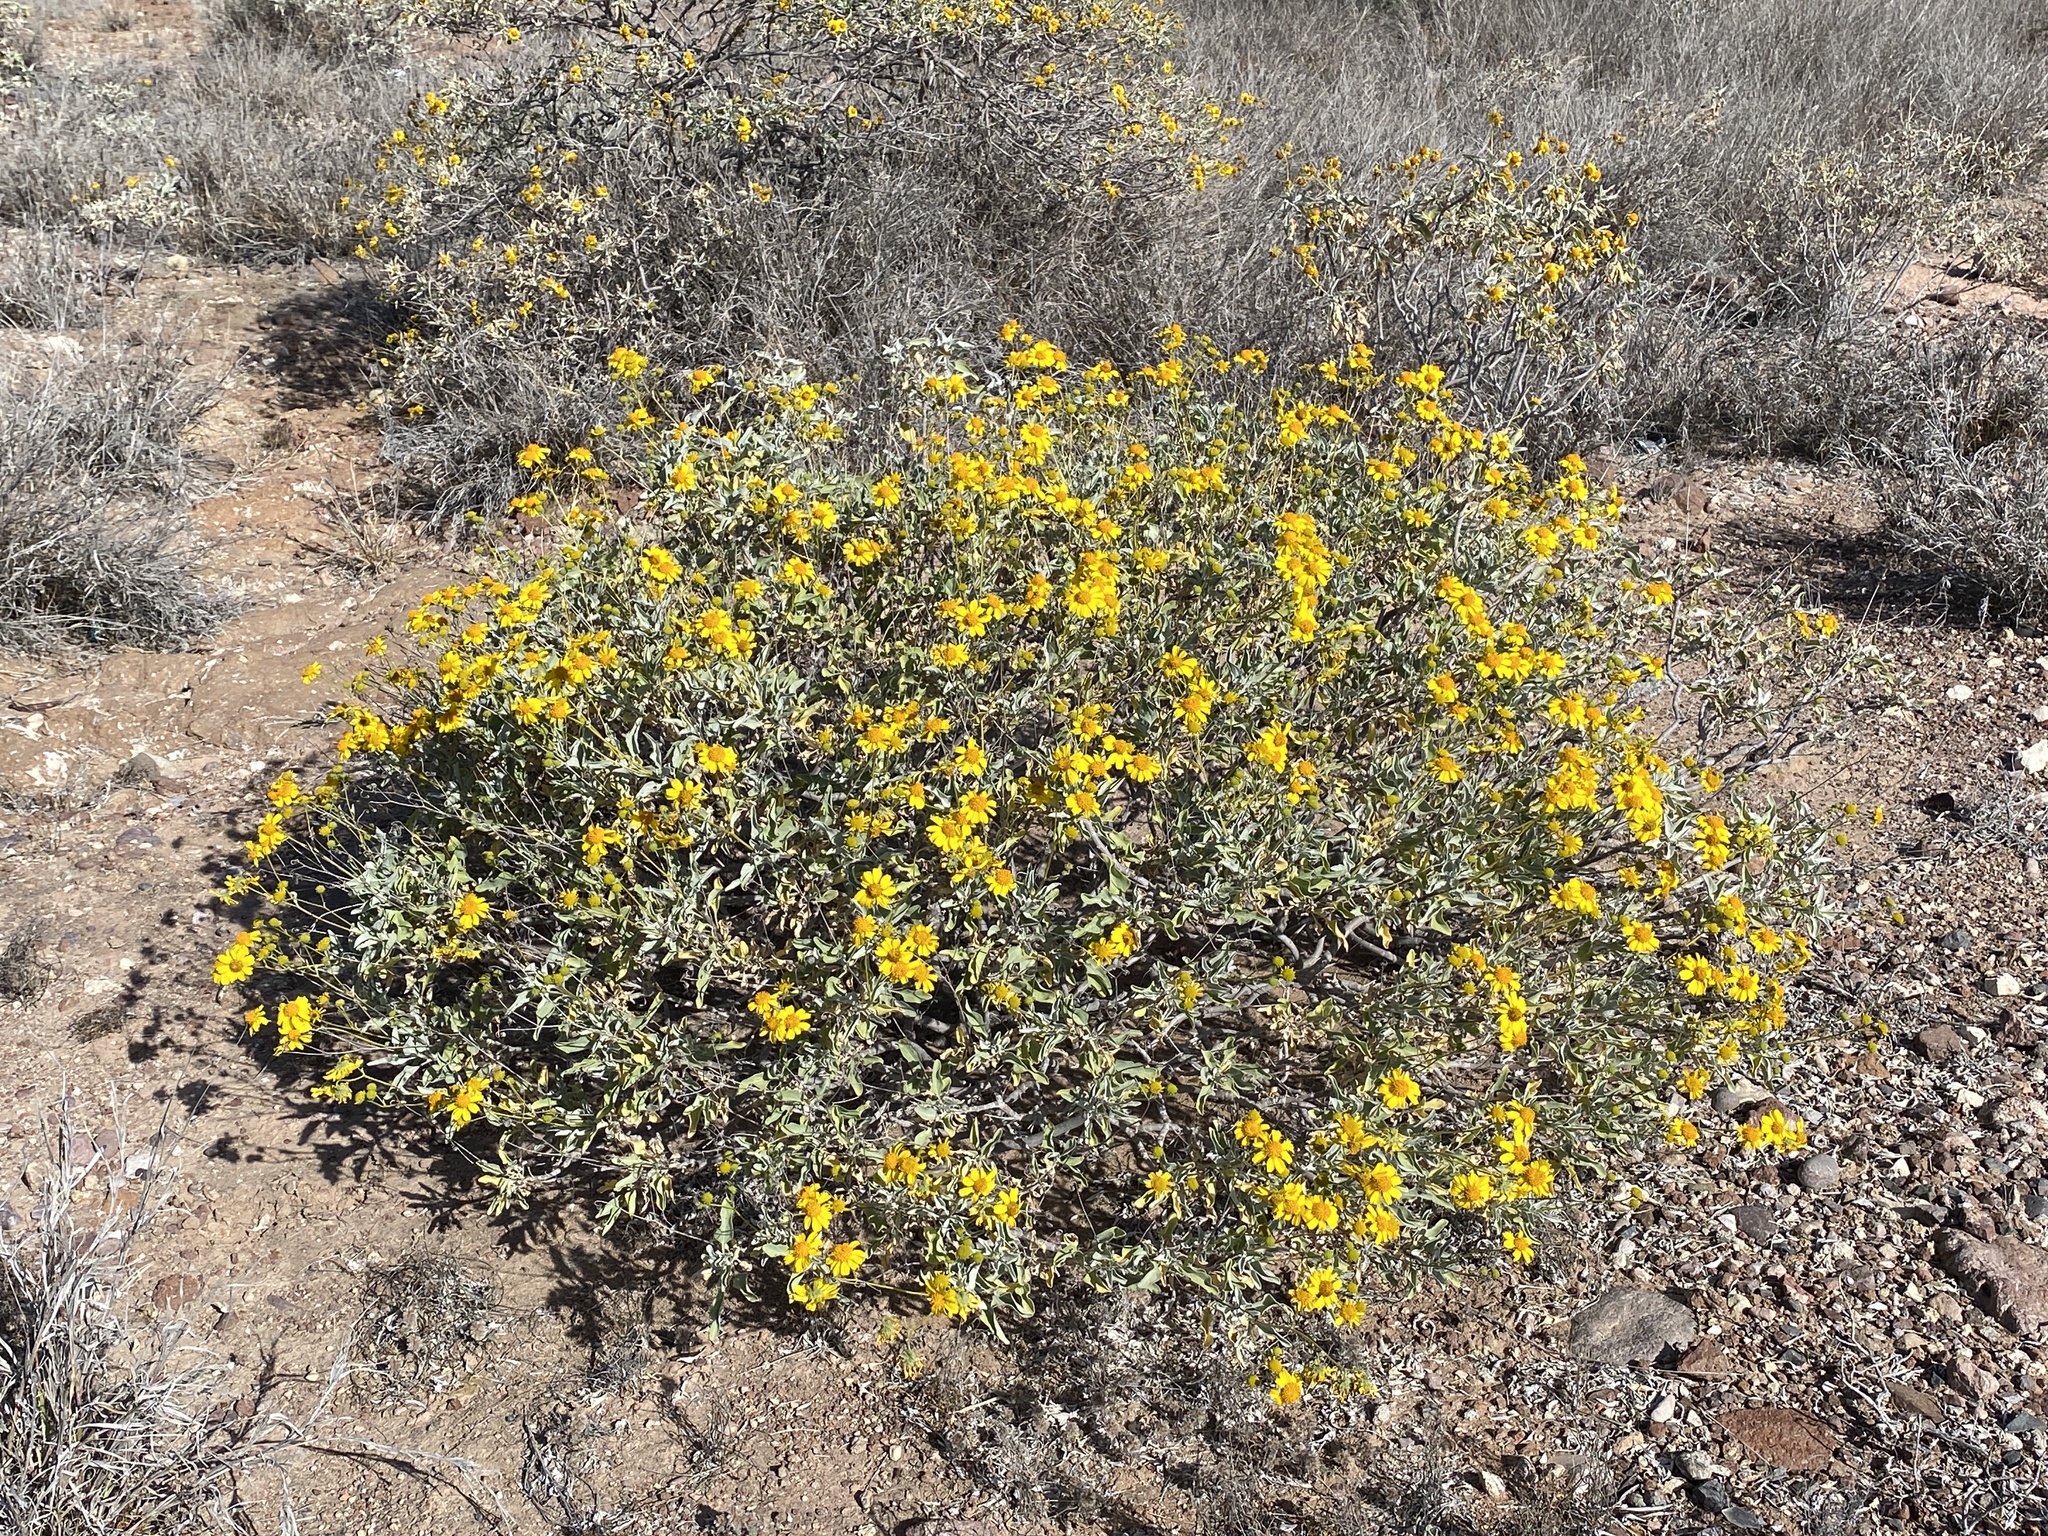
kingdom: Plantae
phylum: Tracheophyta
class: Magnoliopsida
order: Asterales
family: Asteraceae
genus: Encelia
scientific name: Encelia farinosa
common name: Brittlebush
